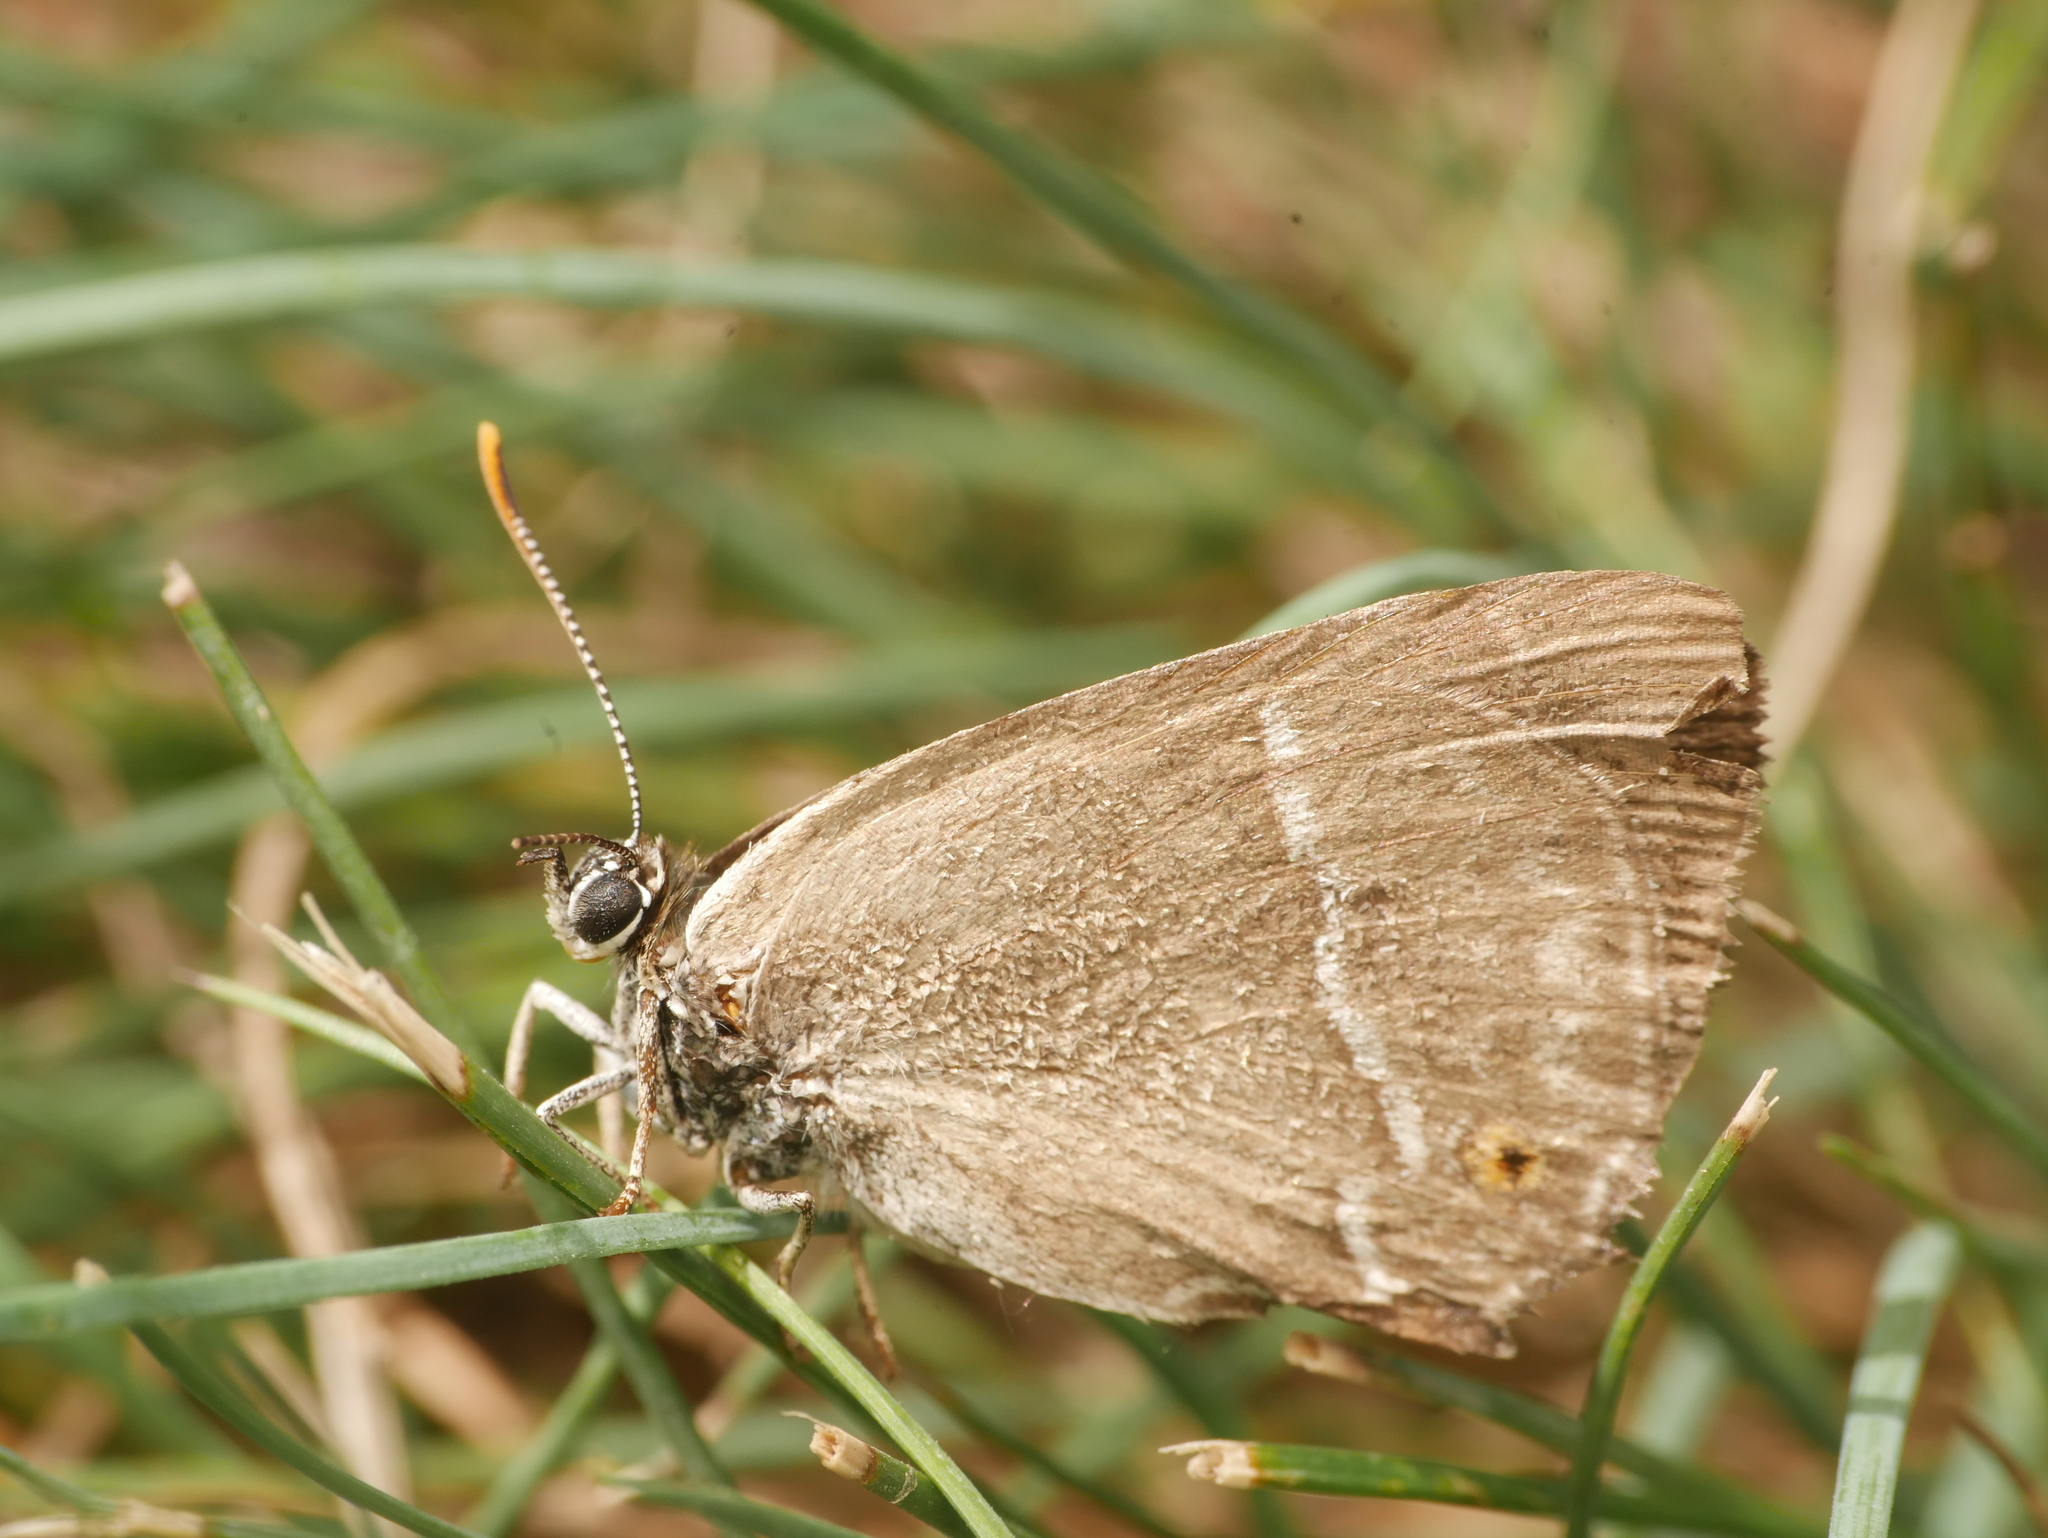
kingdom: Animalia
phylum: Arthropoda
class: Insecta
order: Lepidoptera
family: Lycaenidae
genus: Quercusia
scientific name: Quercusia quercus
